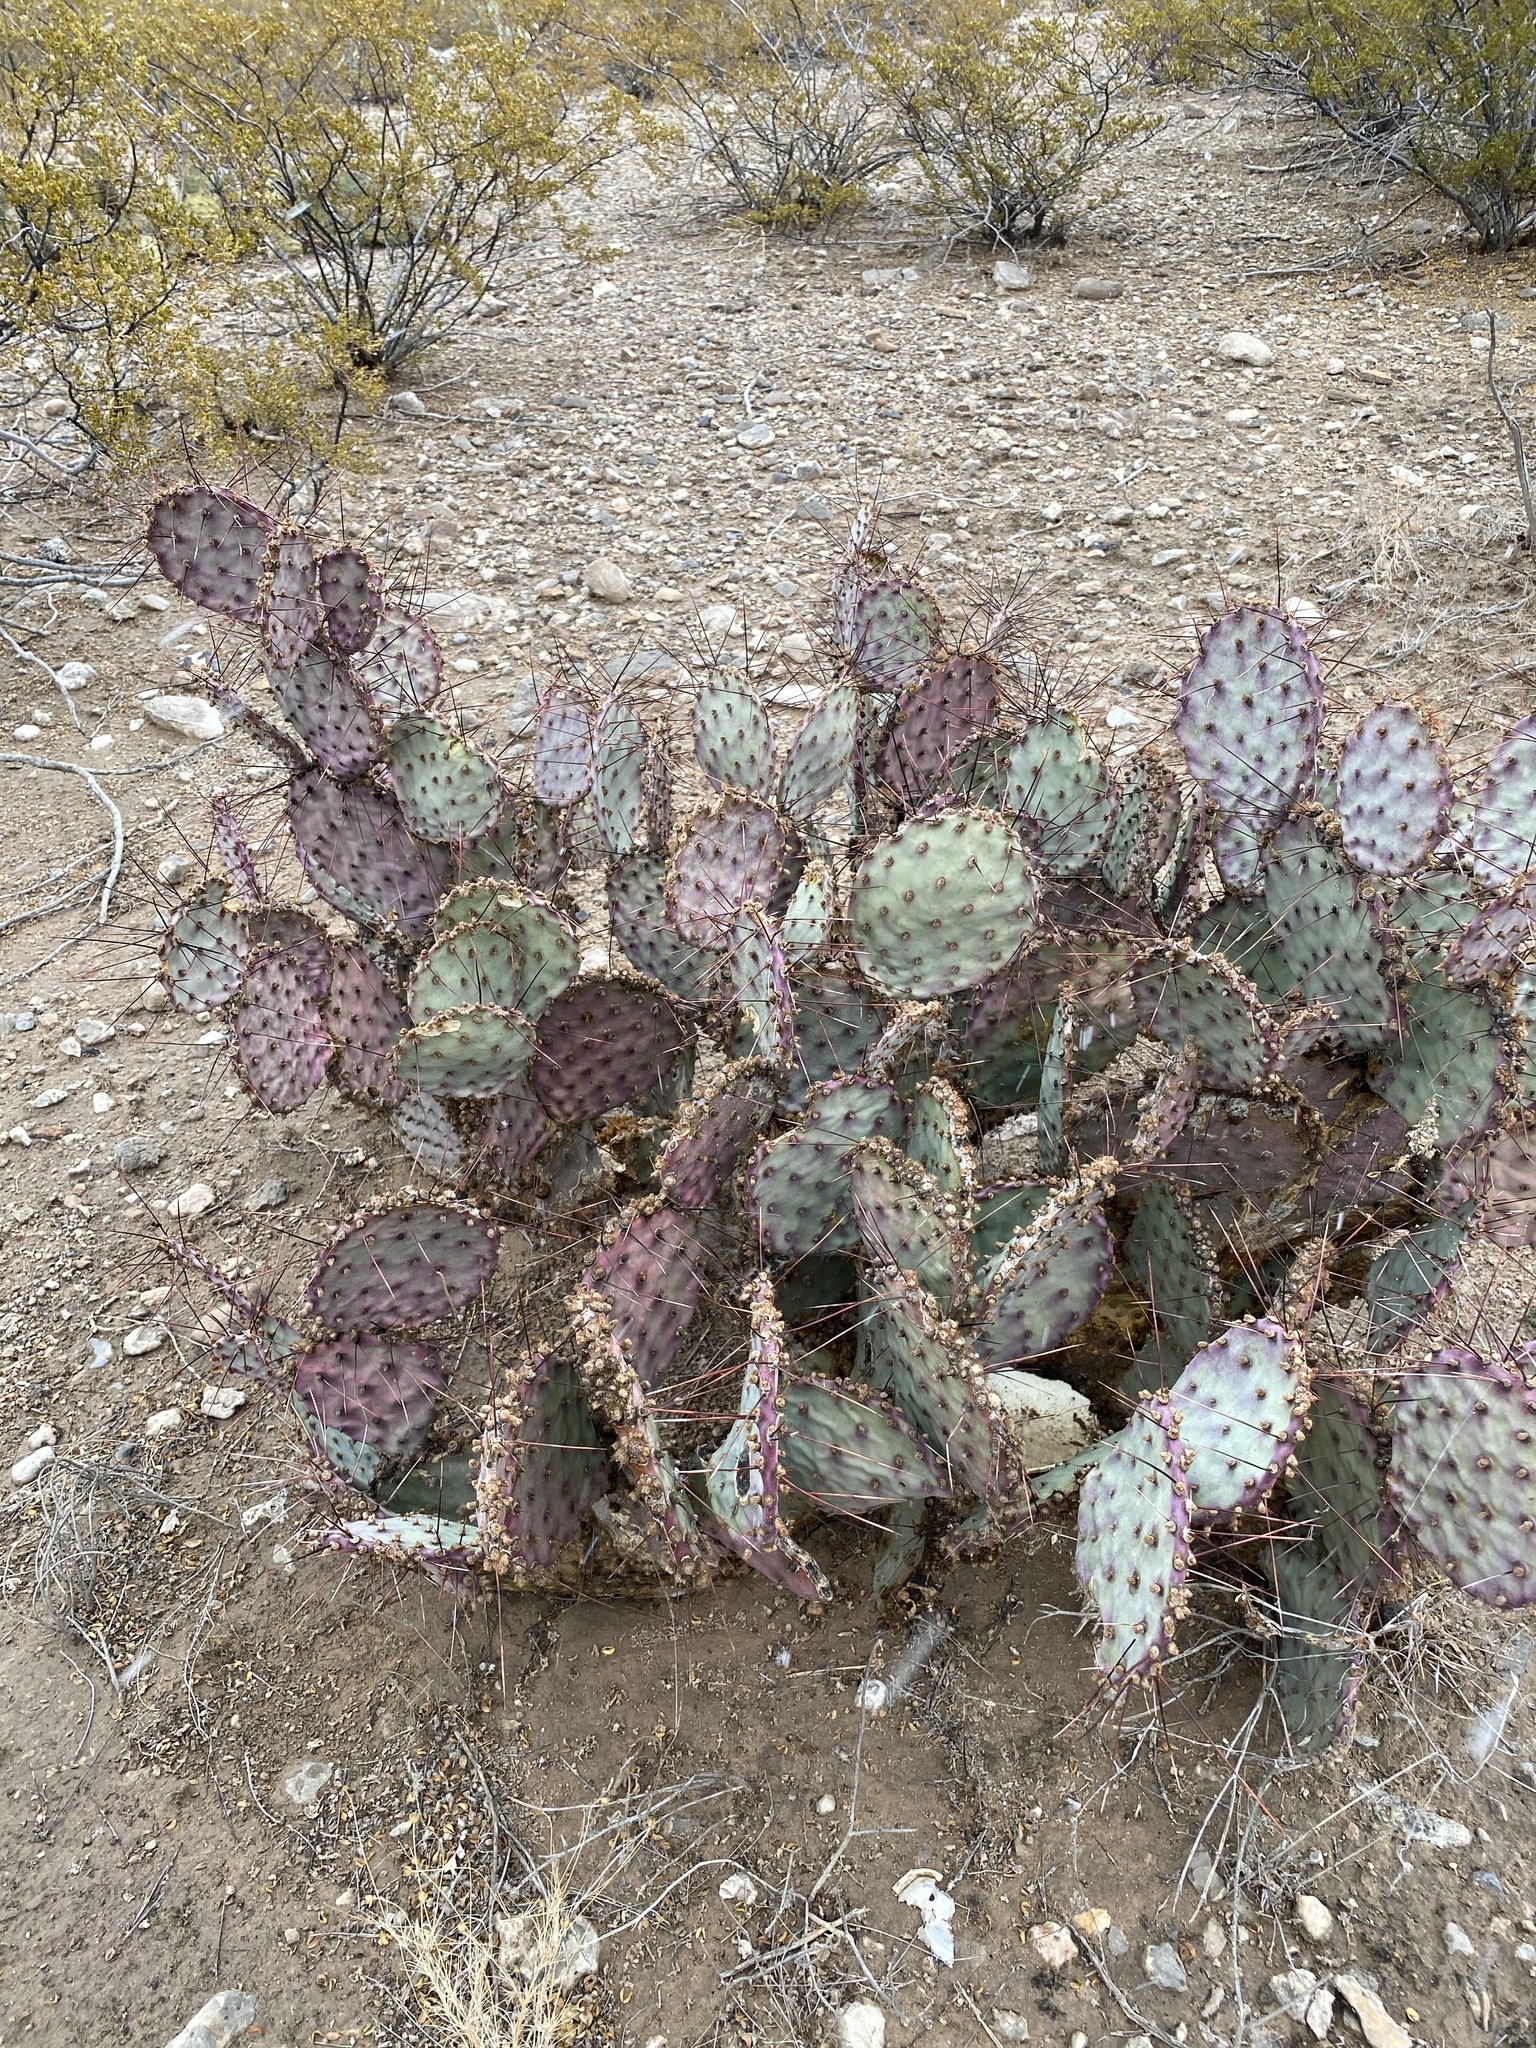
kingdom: Plantae
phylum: Tracheophyta
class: Magnoliopsida
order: Caryophyllales
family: Cactaceae
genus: Opuntia
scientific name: Opuntia macrocentra
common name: Purple prickly-pear
